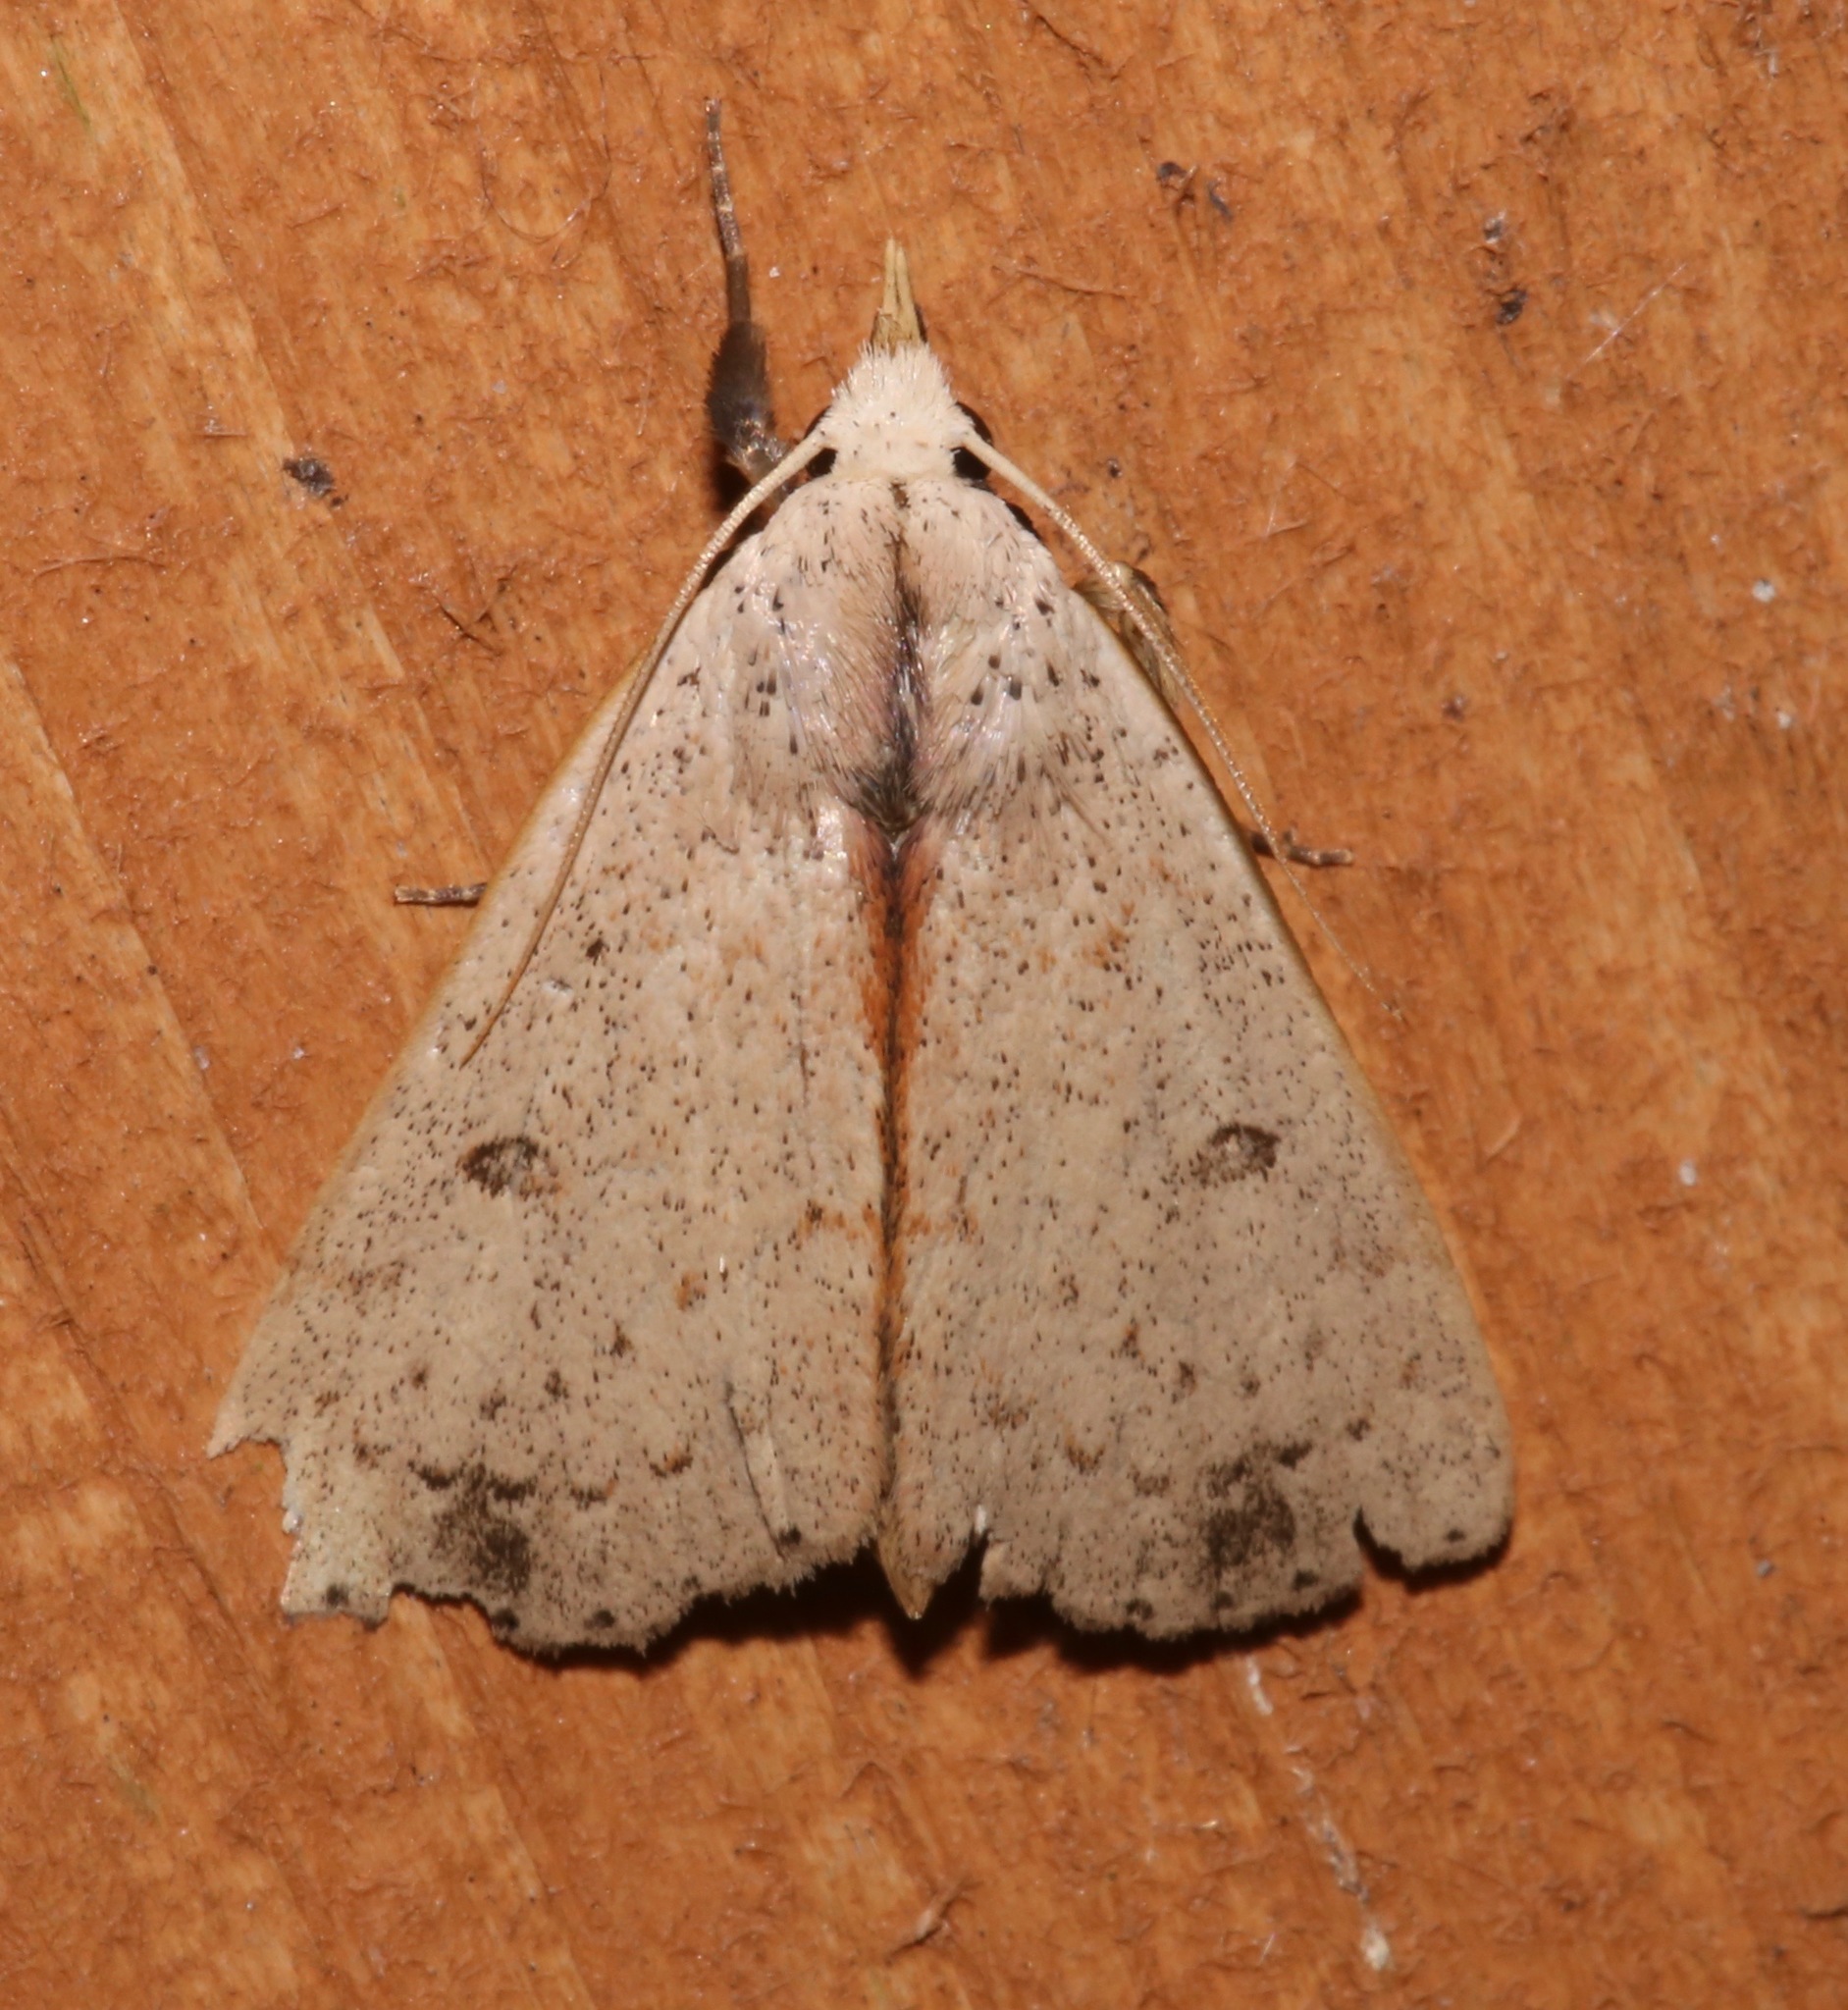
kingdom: Animalia
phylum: Arthropoda
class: Insecta
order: Lepidoptera
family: Erebidae
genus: Scolecocampa
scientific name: Scolecocampa liburna
